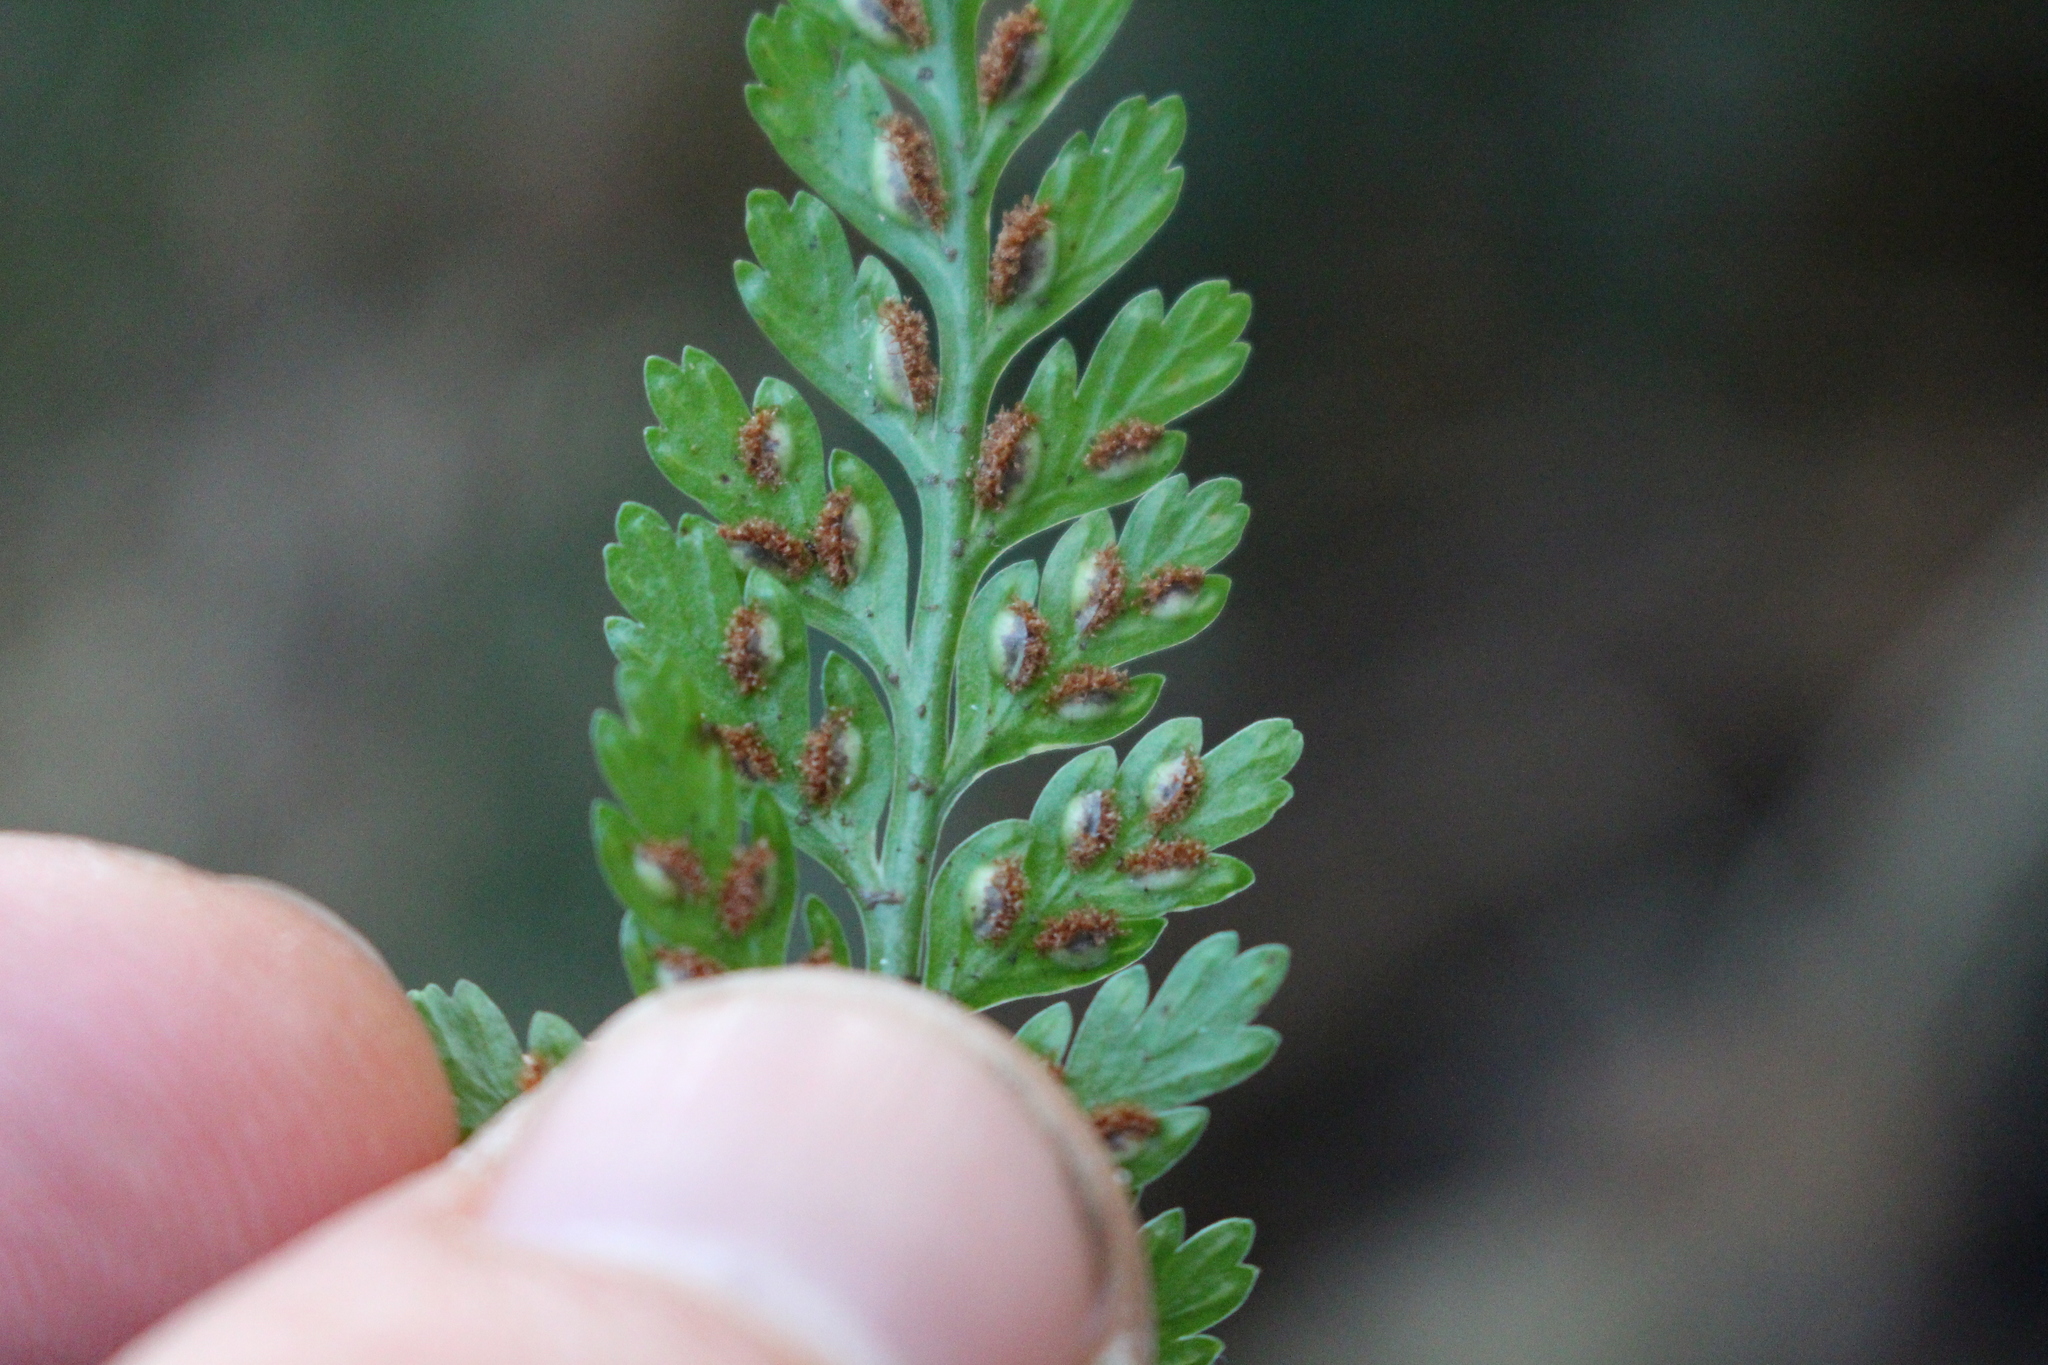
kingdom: Plantae
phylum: Tracheophyta
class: Polypodiopsida
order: Polypodiales
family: Aspleniaceae
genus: Asplenium
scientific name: Asplenium
